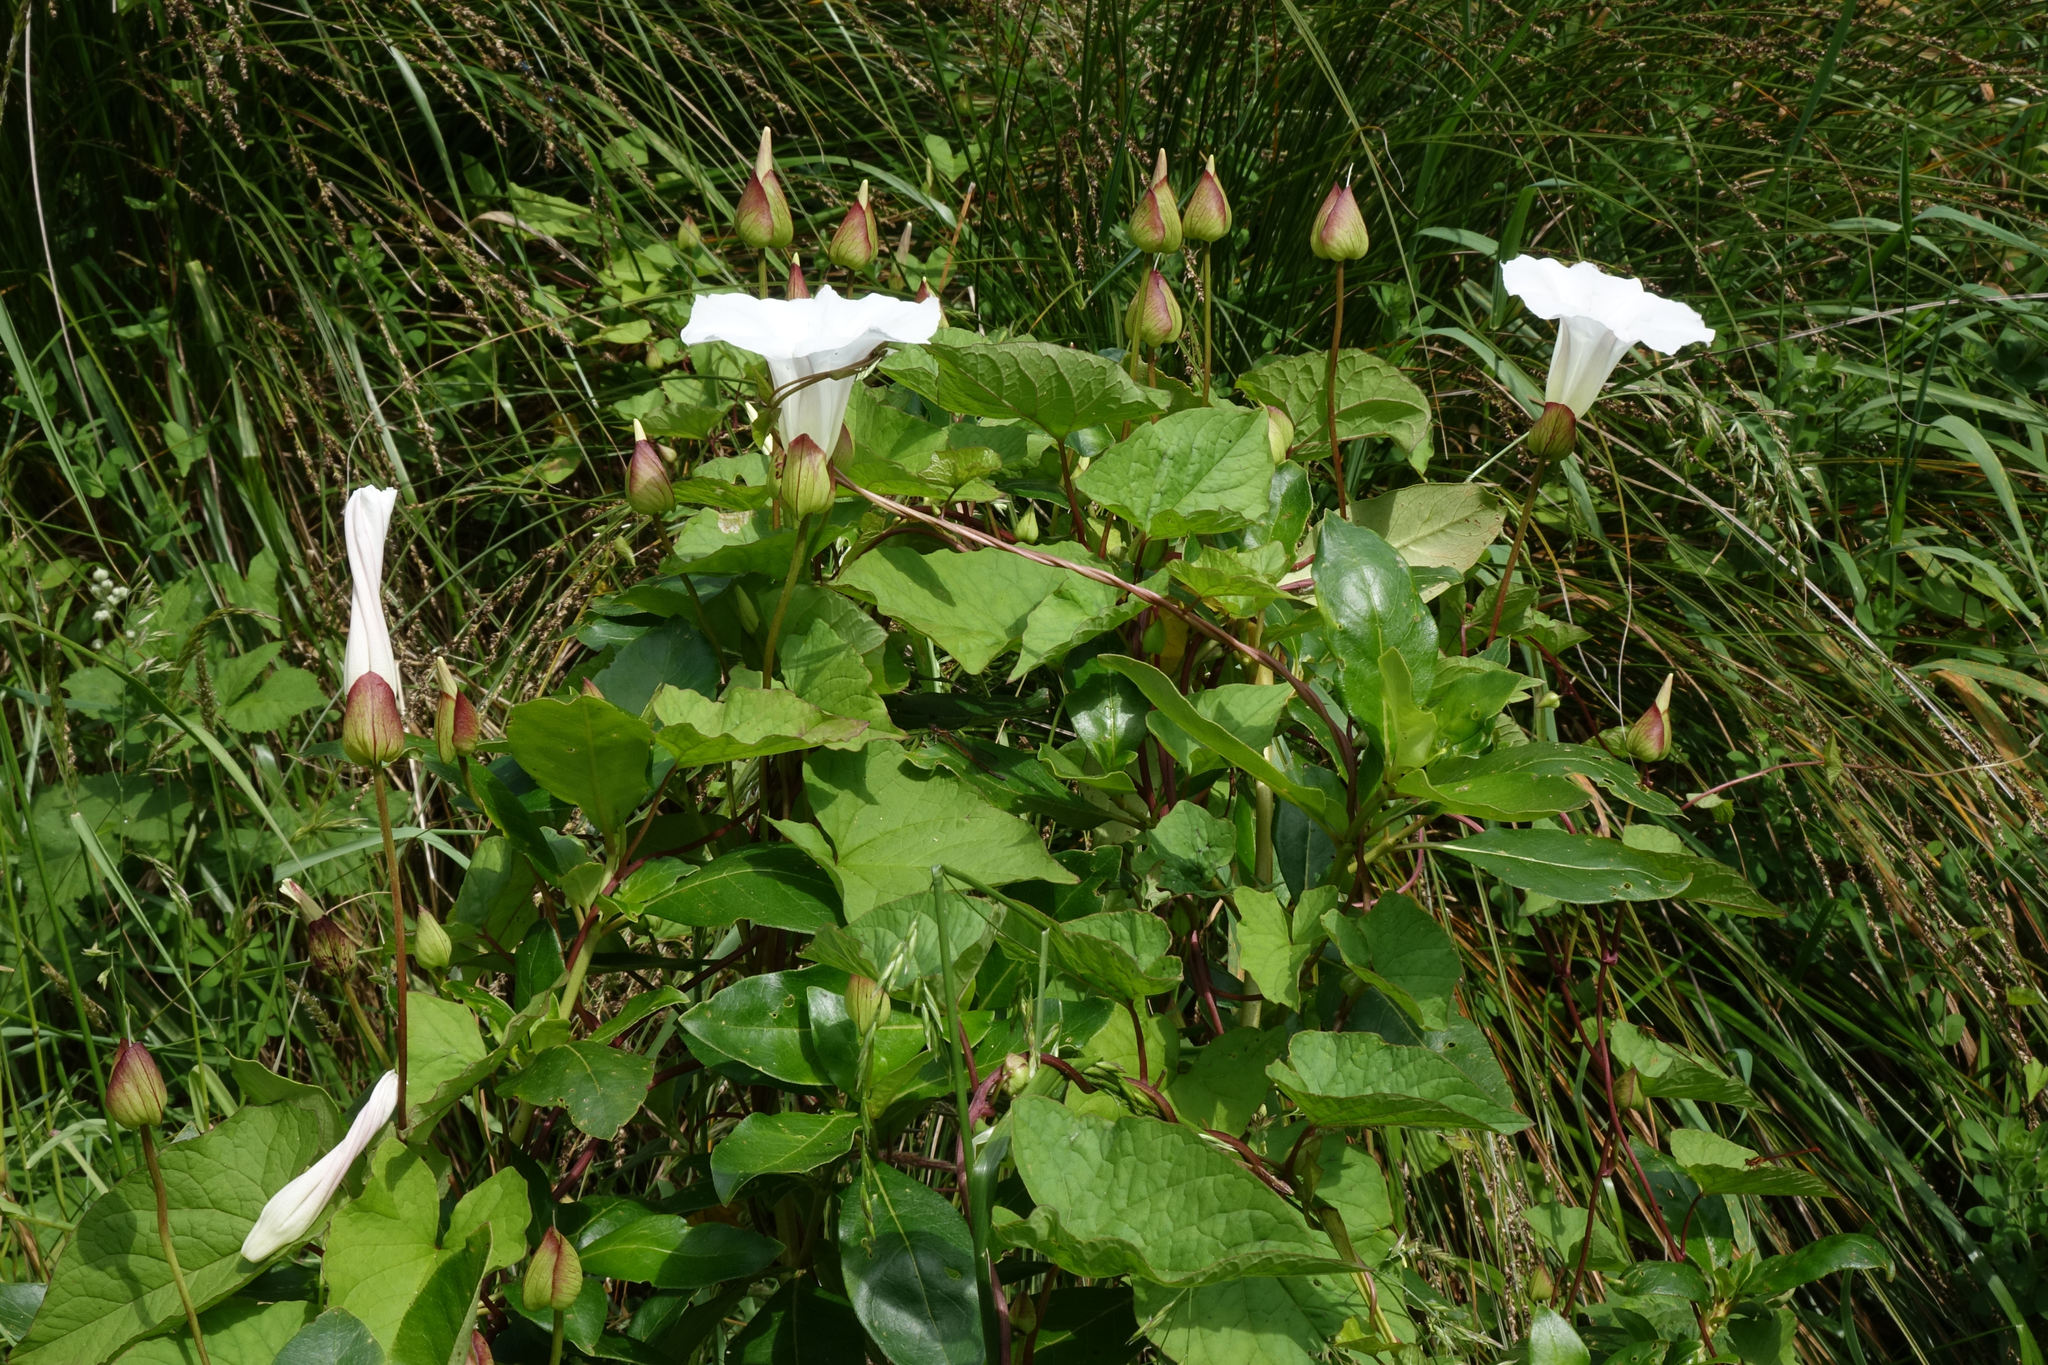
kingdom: Plantae
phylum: Tracheophyta
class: Magnoliopsida
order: Solanales
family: Convolvulaceae
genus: Calystegia
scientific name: Calystegia silvatica
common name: Large bindweed
